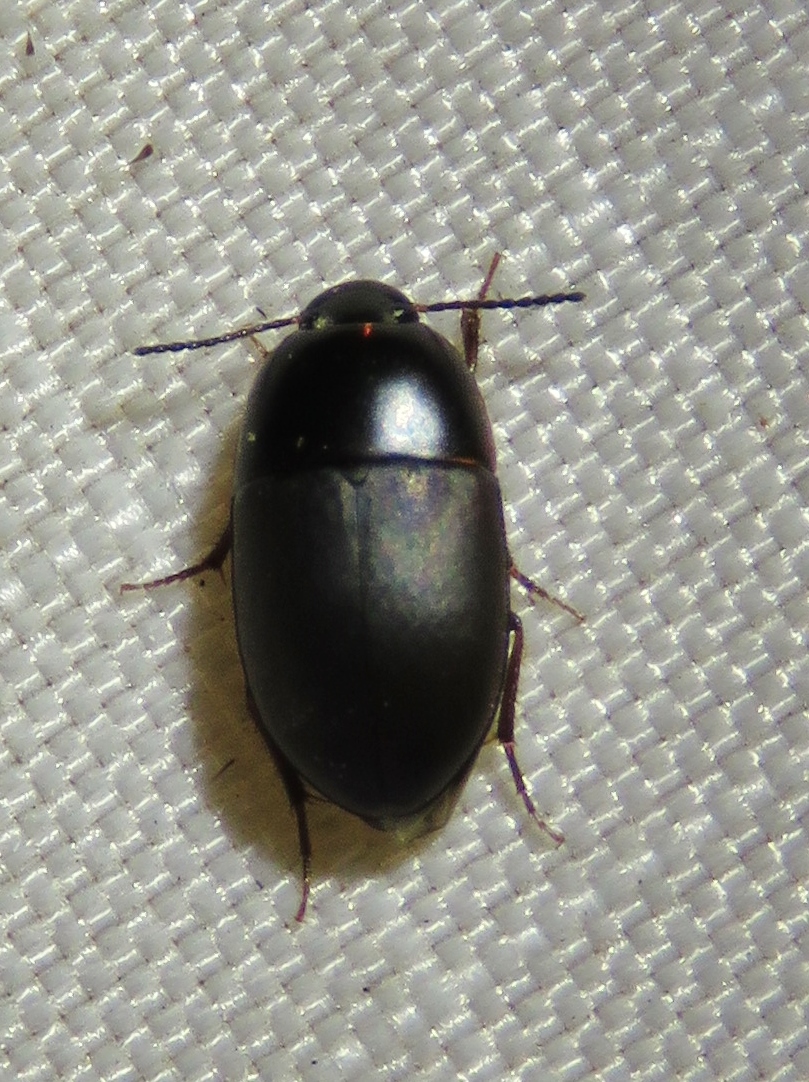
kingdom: Animalia
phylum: Arthropoda
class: Insecta
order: Coleoptera
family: Tenebrionidae
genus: Gondwanocrypticus
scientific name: Gondwanocrypticus platensis
